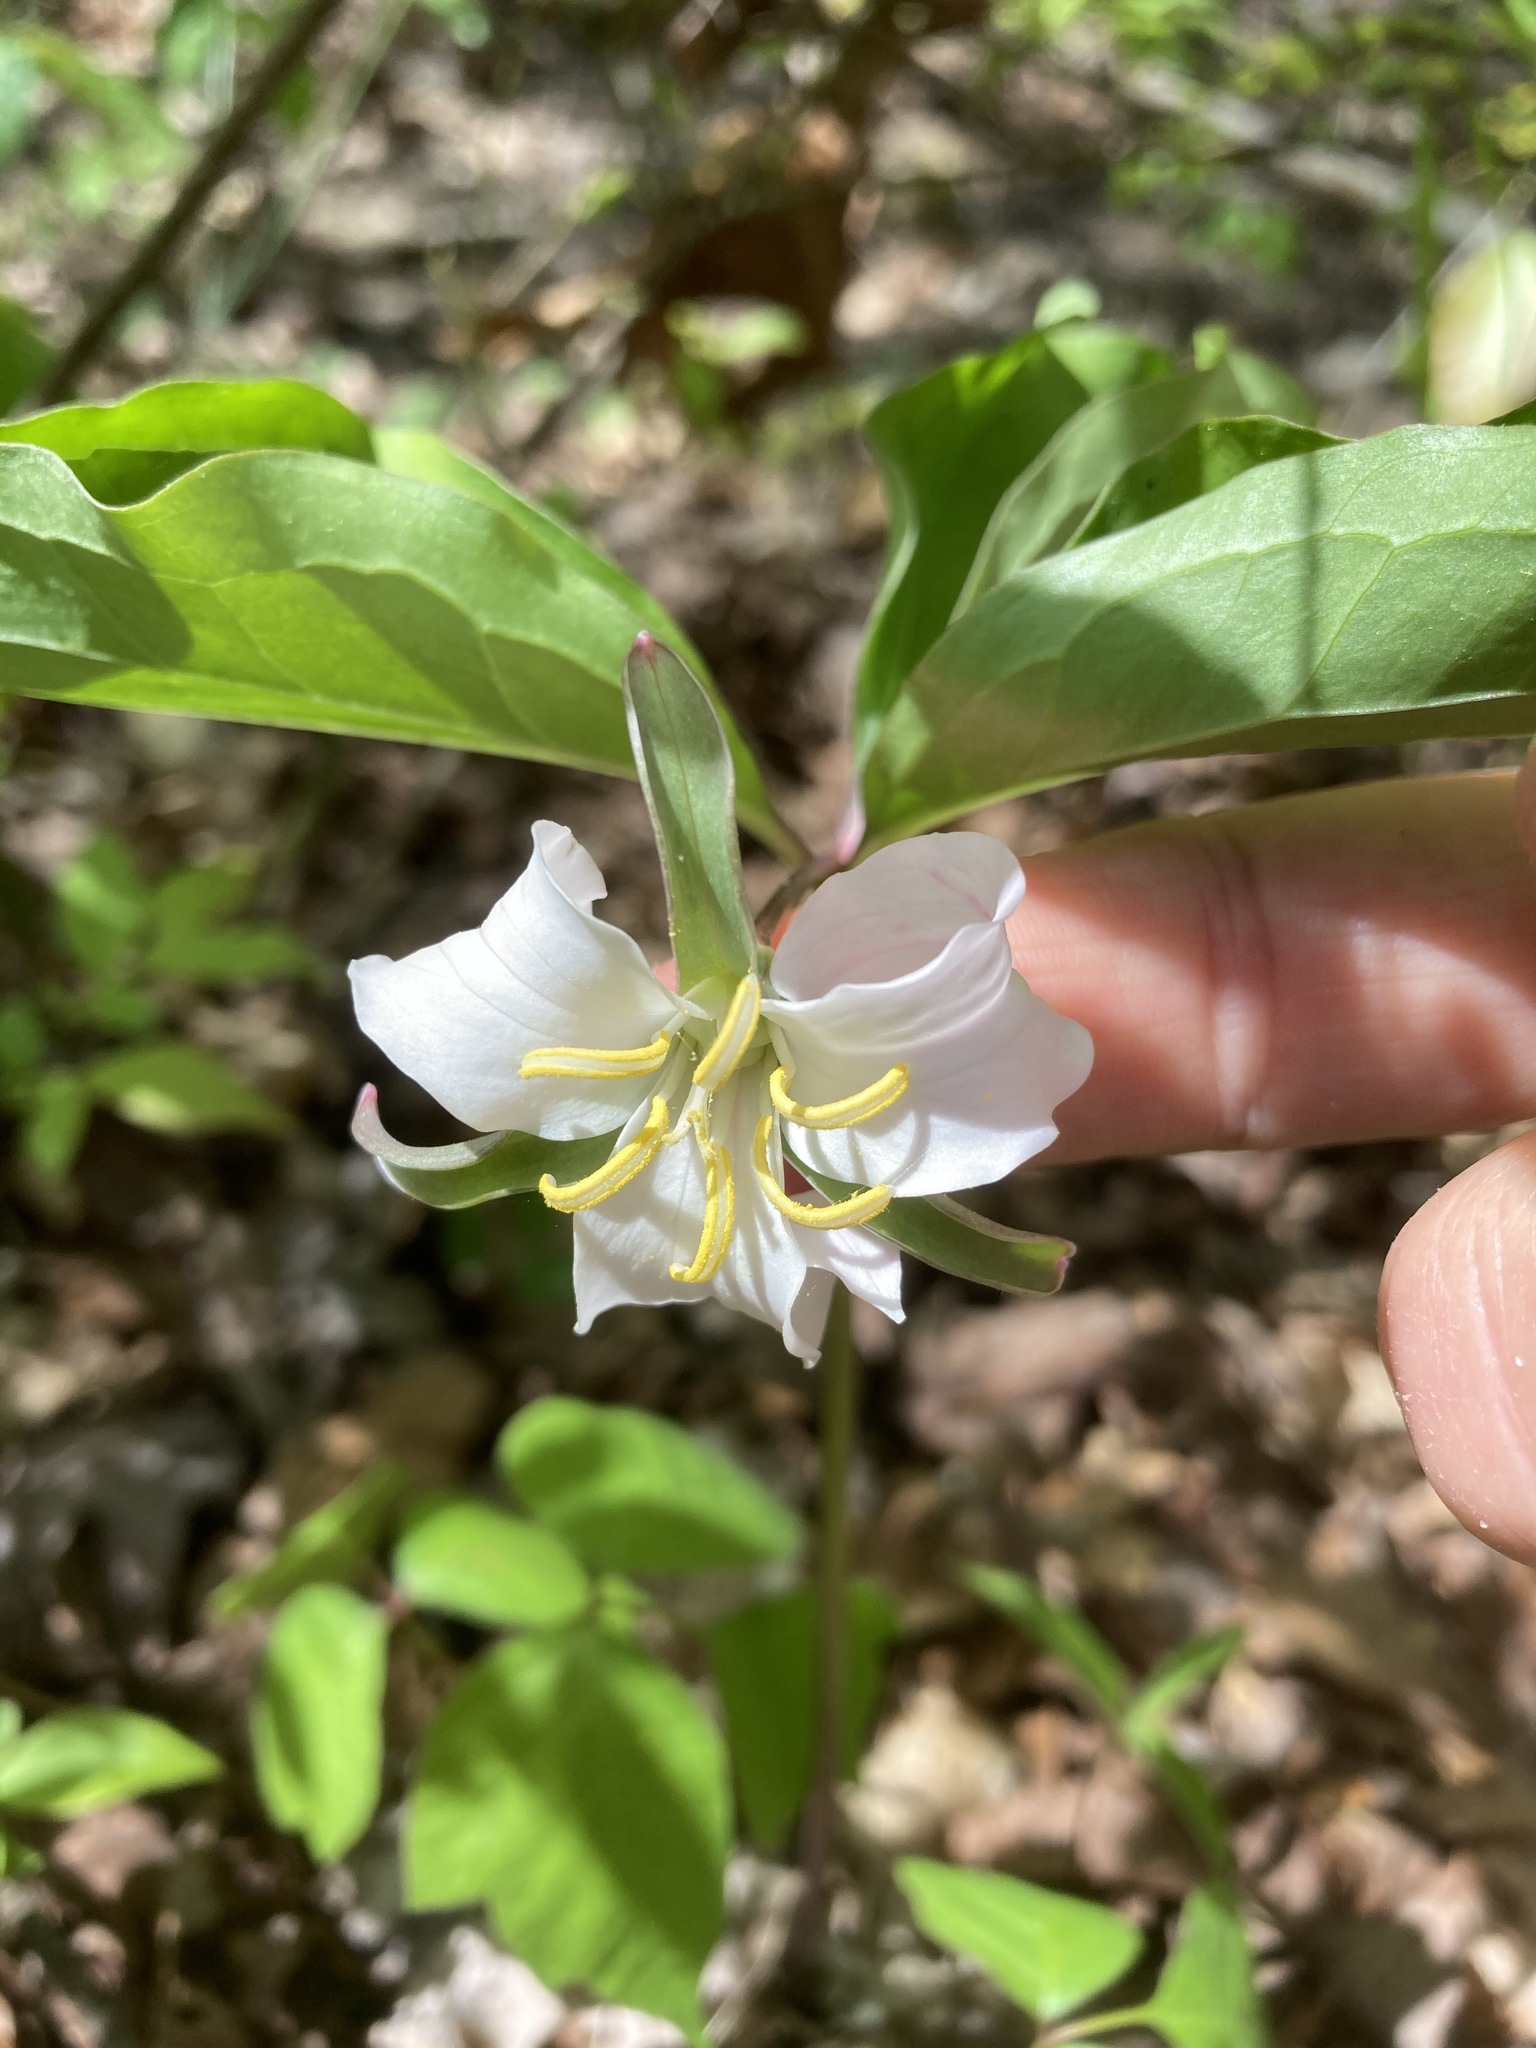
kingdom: Plantae
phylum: Tracheophyta
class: Liliopsida
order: Liliales
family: Melanthiaceae
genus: Trillium
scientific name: Trillium catesbaei
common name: Bashful trillium
